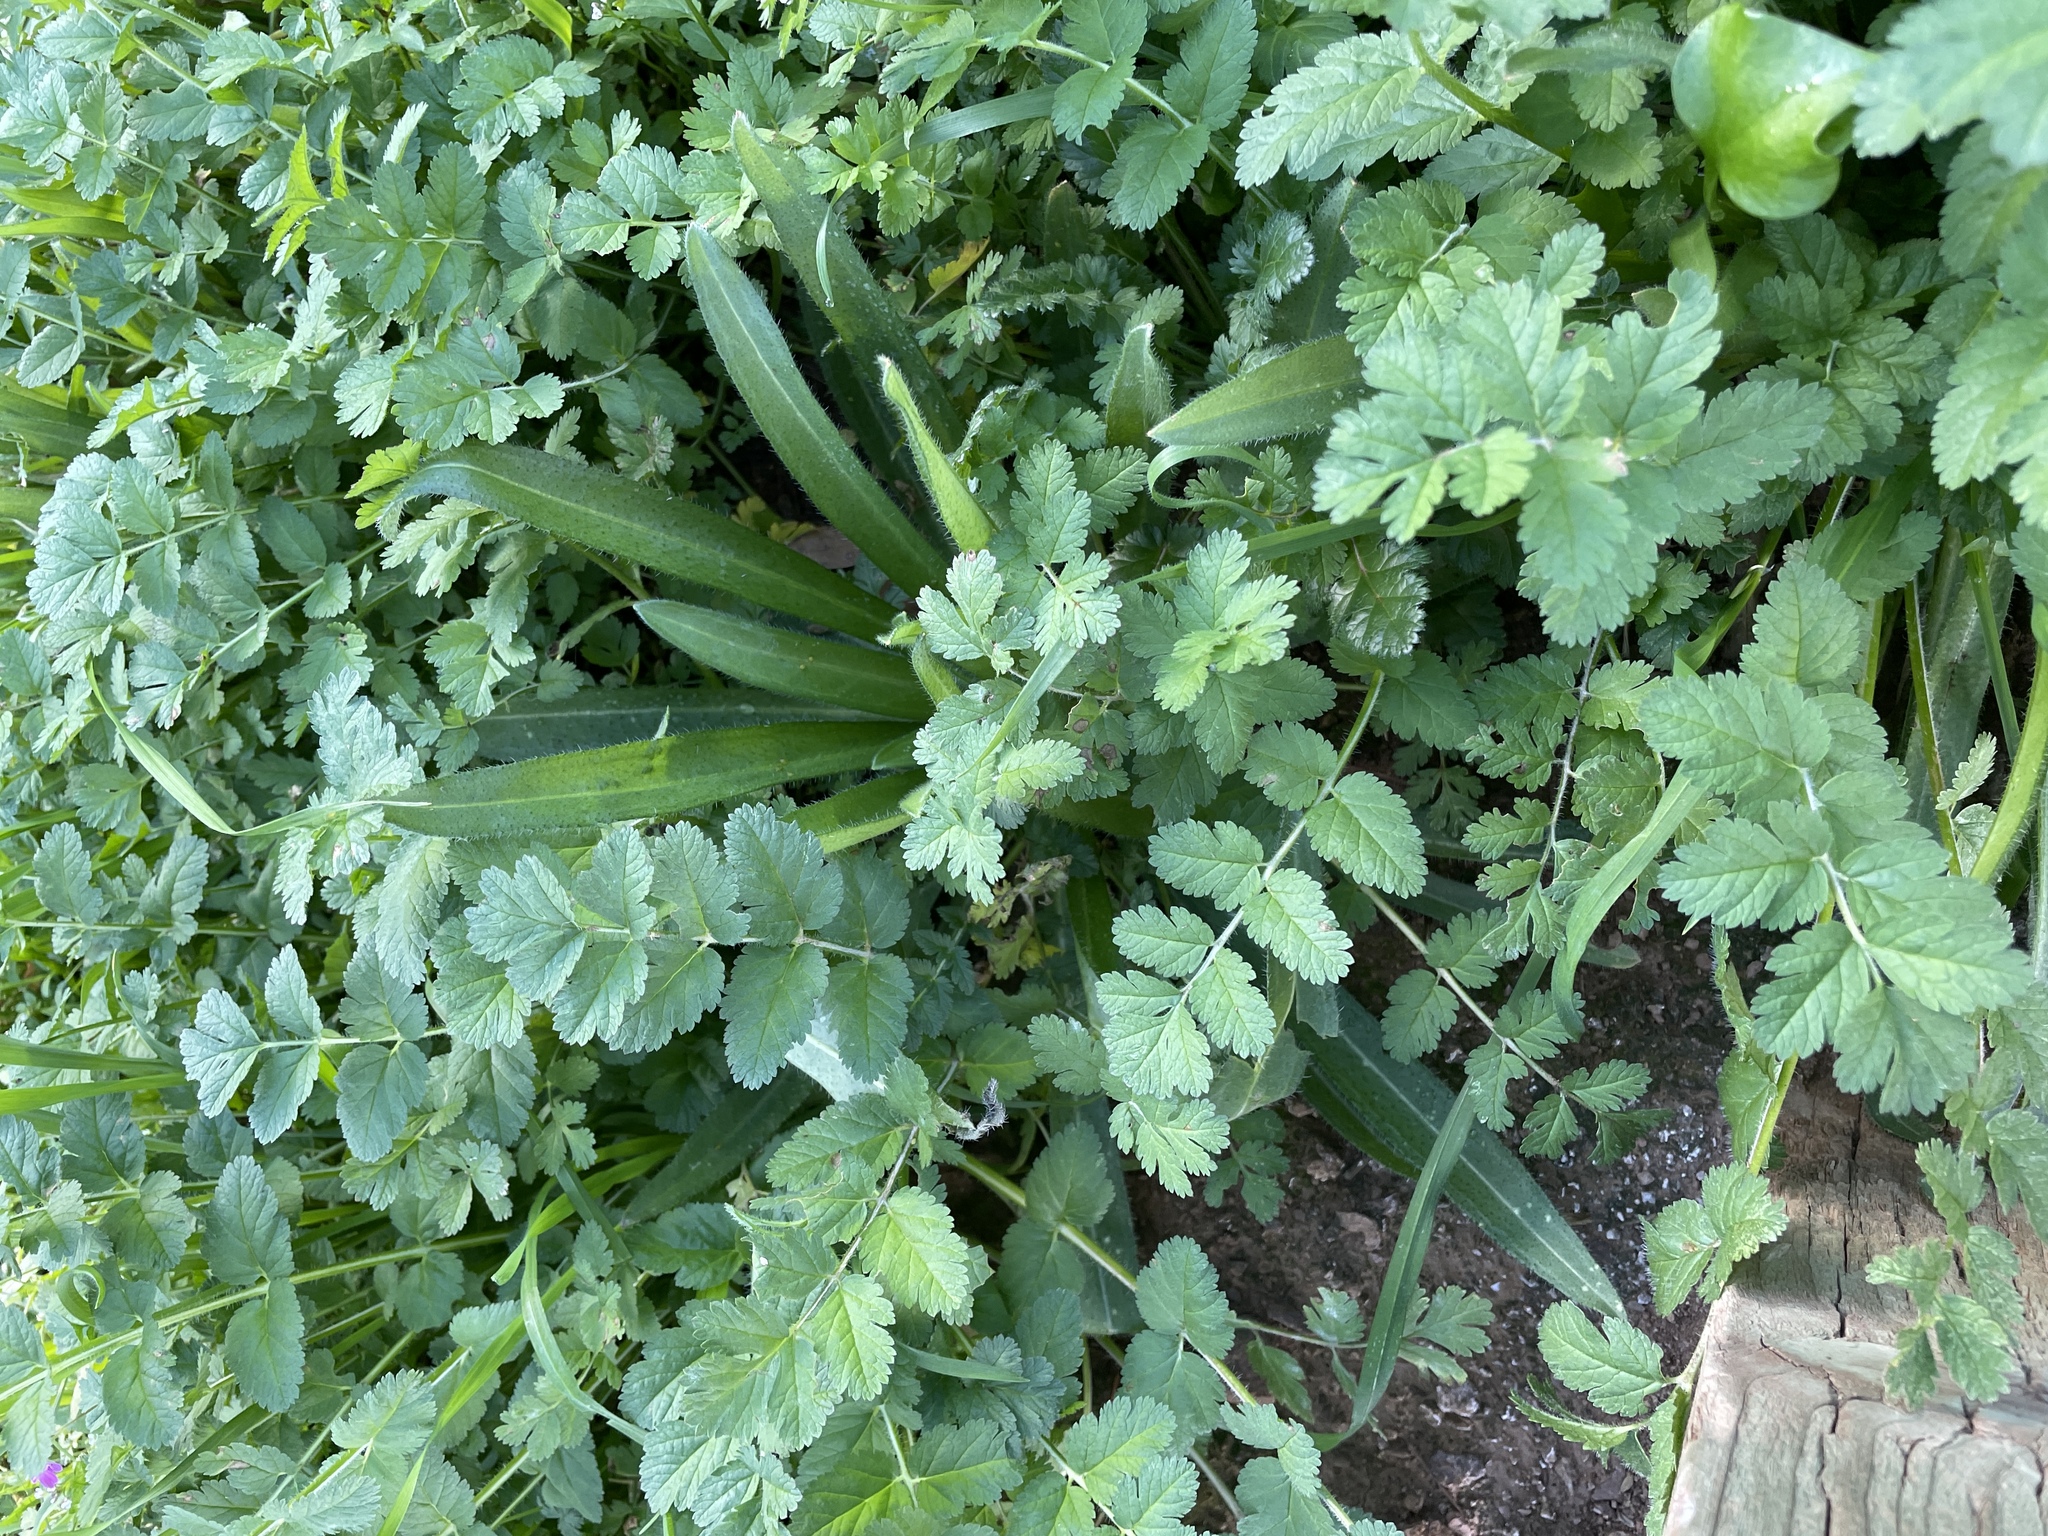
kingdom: Plantae
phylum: Tracheophyta
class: Magnoliopsida
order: Geraniales
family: Geraniaceae
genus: Erodium
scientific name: Erodium moschatum
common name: Musk stork's-bill
